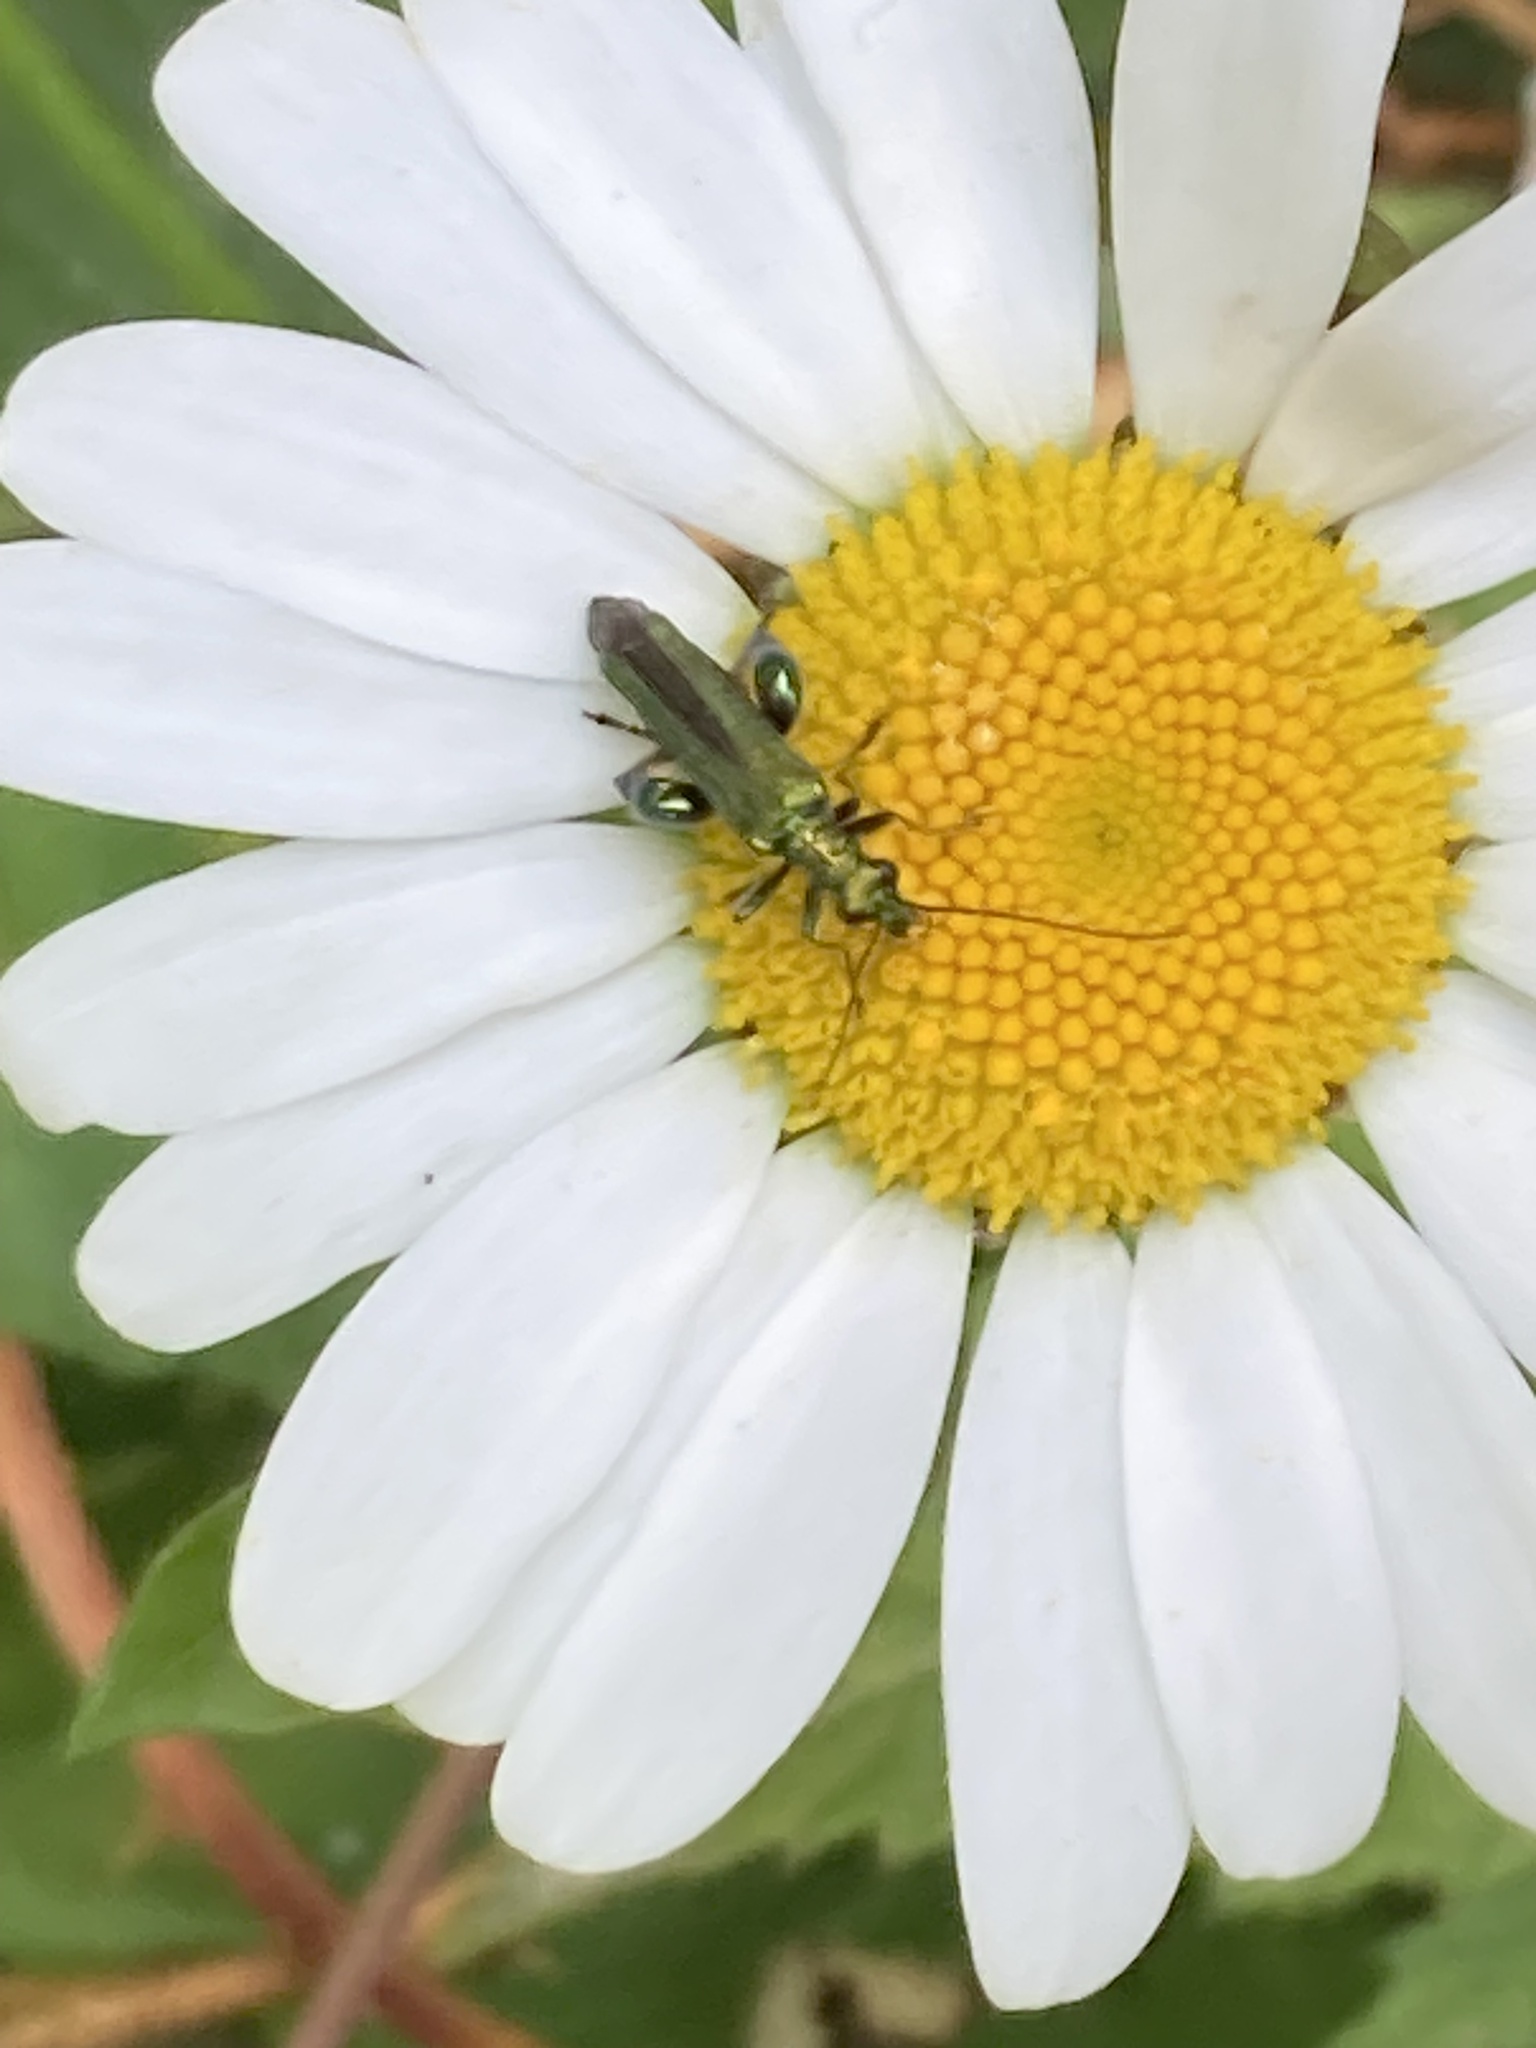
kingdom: Animalia
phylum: Arthropoda
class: Insecta
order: Coleoptera
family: Oedemeridae
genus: Oedemera
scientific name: Oedemera nobilis
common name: Swollen-thighed beetle
